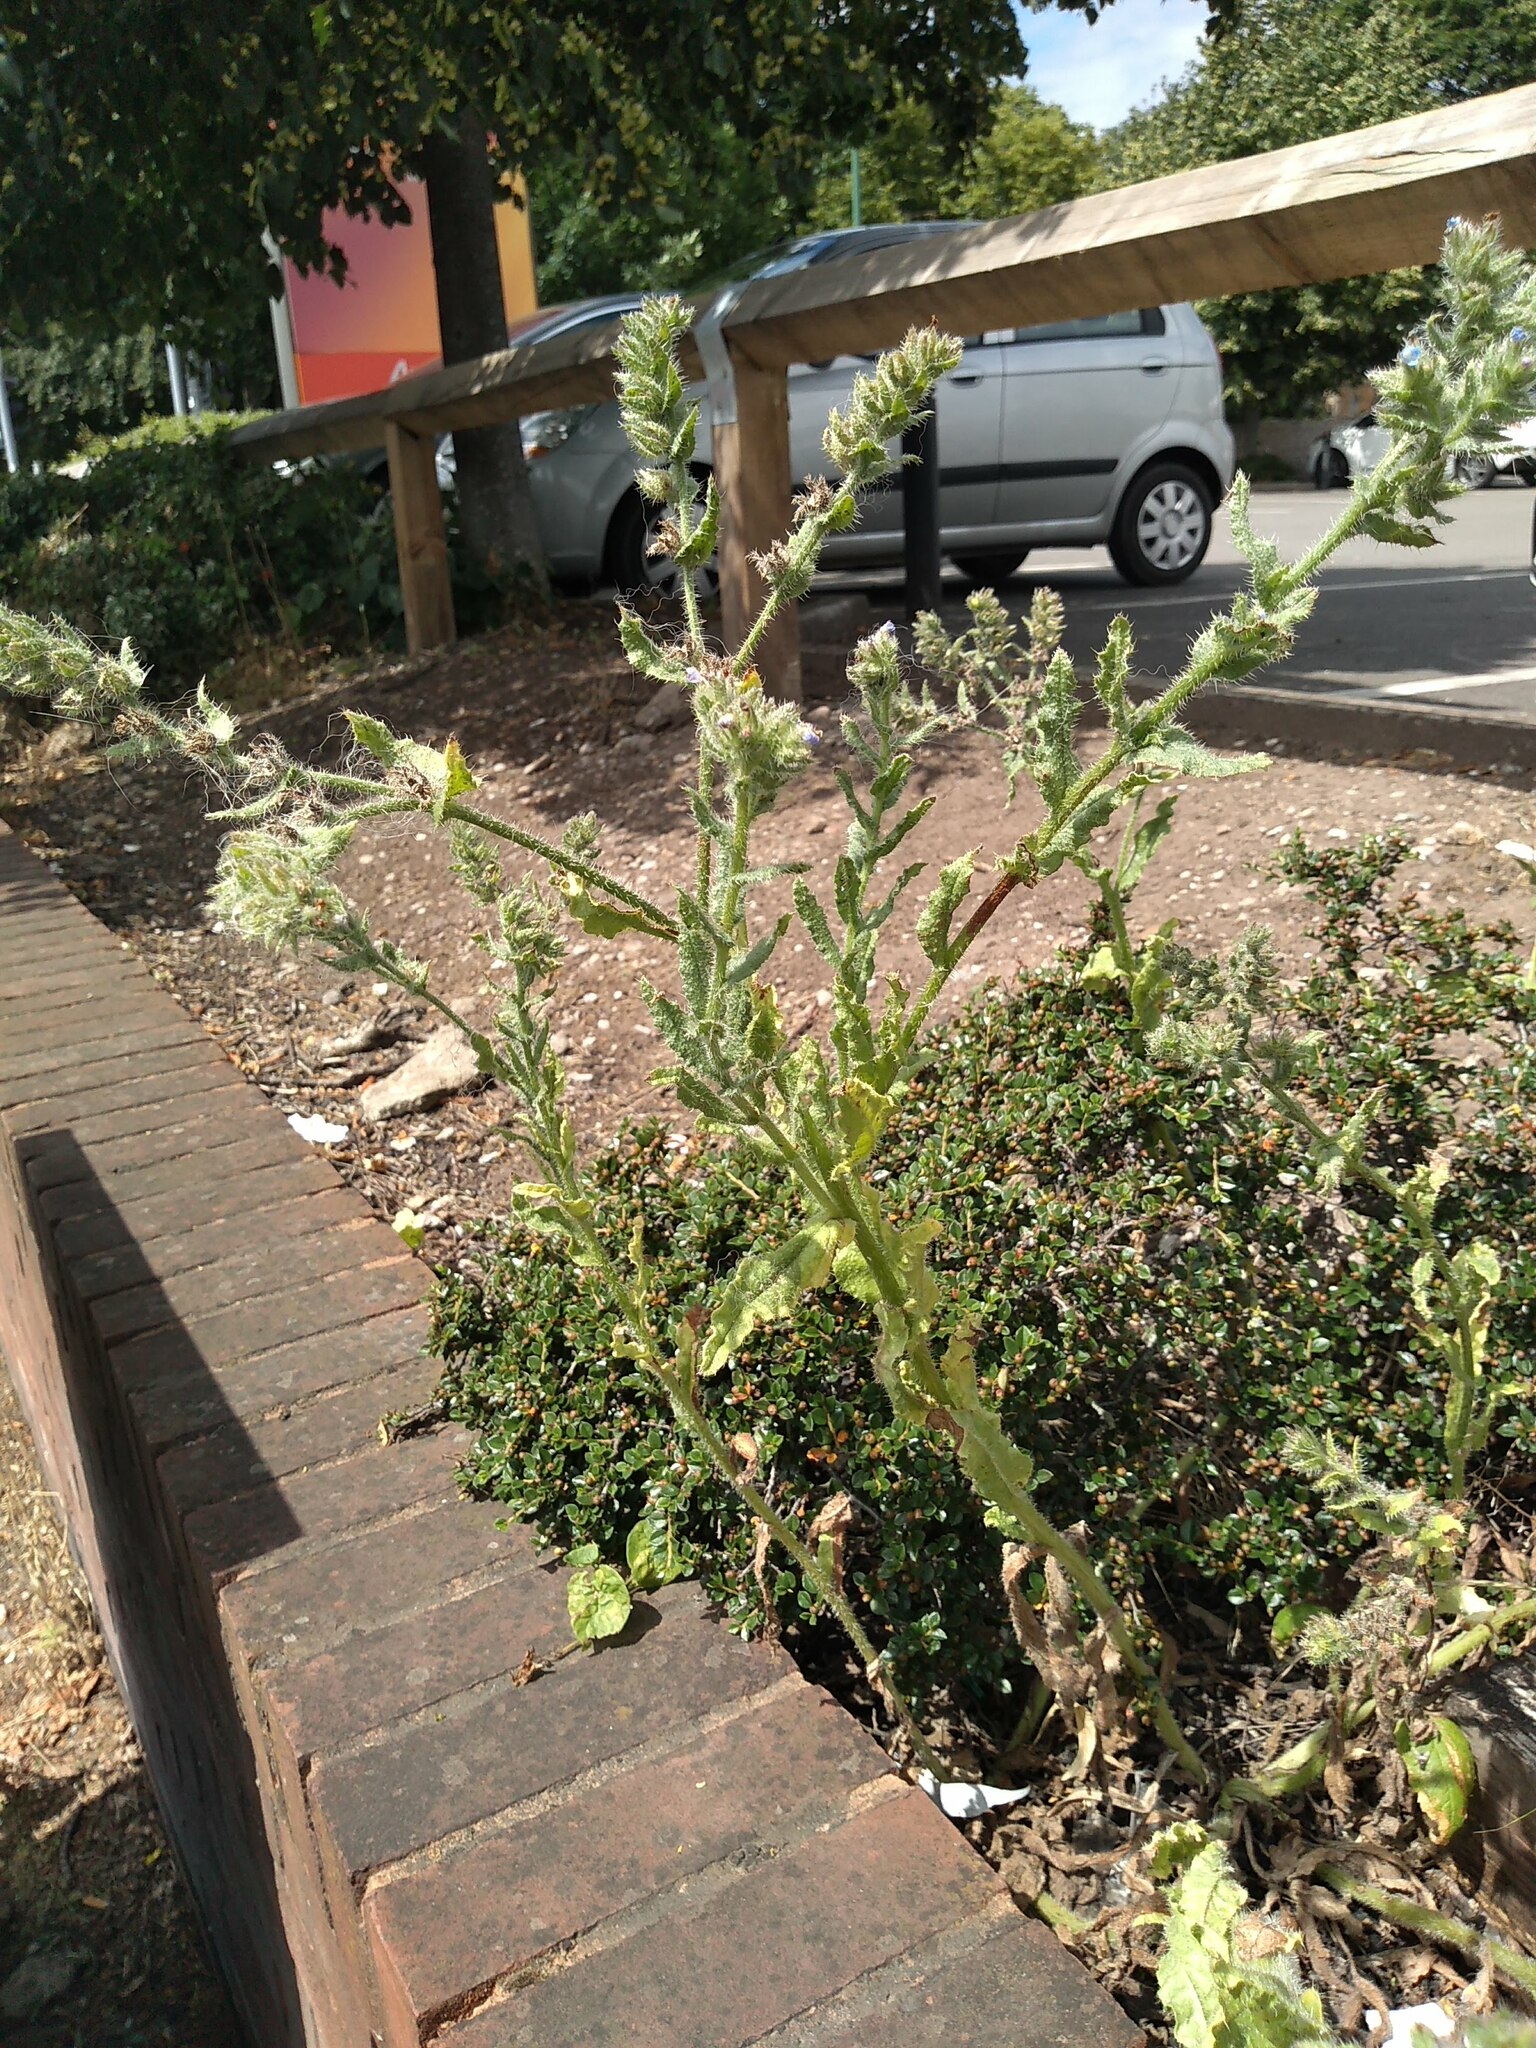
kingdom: Plantae
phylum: Tracheophyta
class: Magnoliopsida
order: Boraginales
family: Boraginaceae
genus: Lycopsis
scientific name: Lycopsis arvensis
